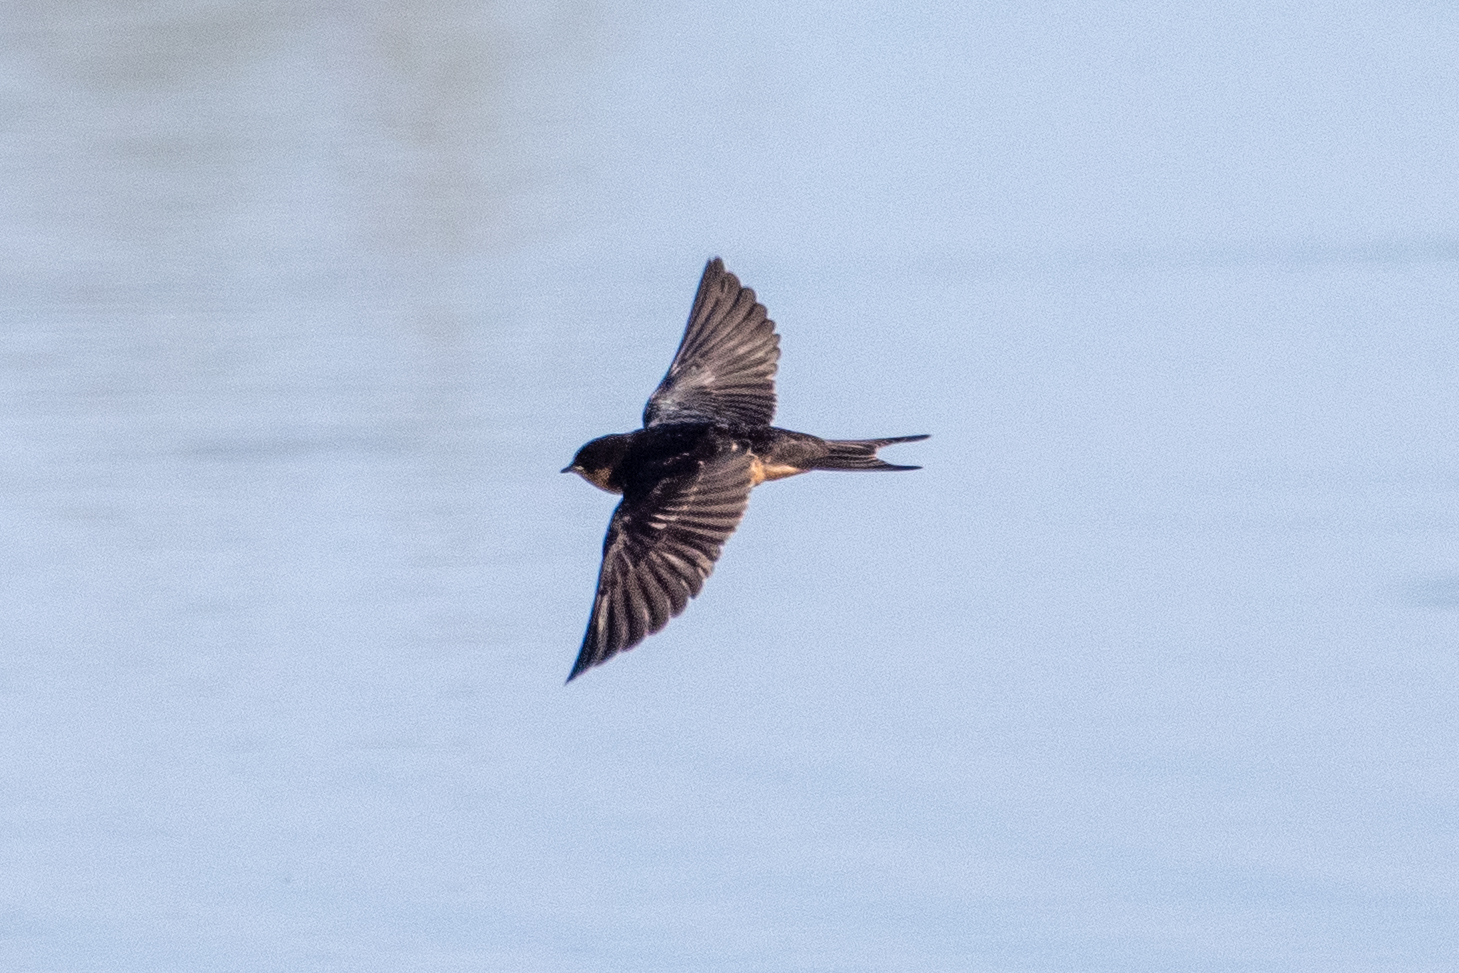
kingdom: Animalia
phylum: Chordata
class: Aves
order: Passeriformes
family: Hirundinidae
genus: Hirundo
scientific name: Hirundo rustica
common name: Barn swallow
